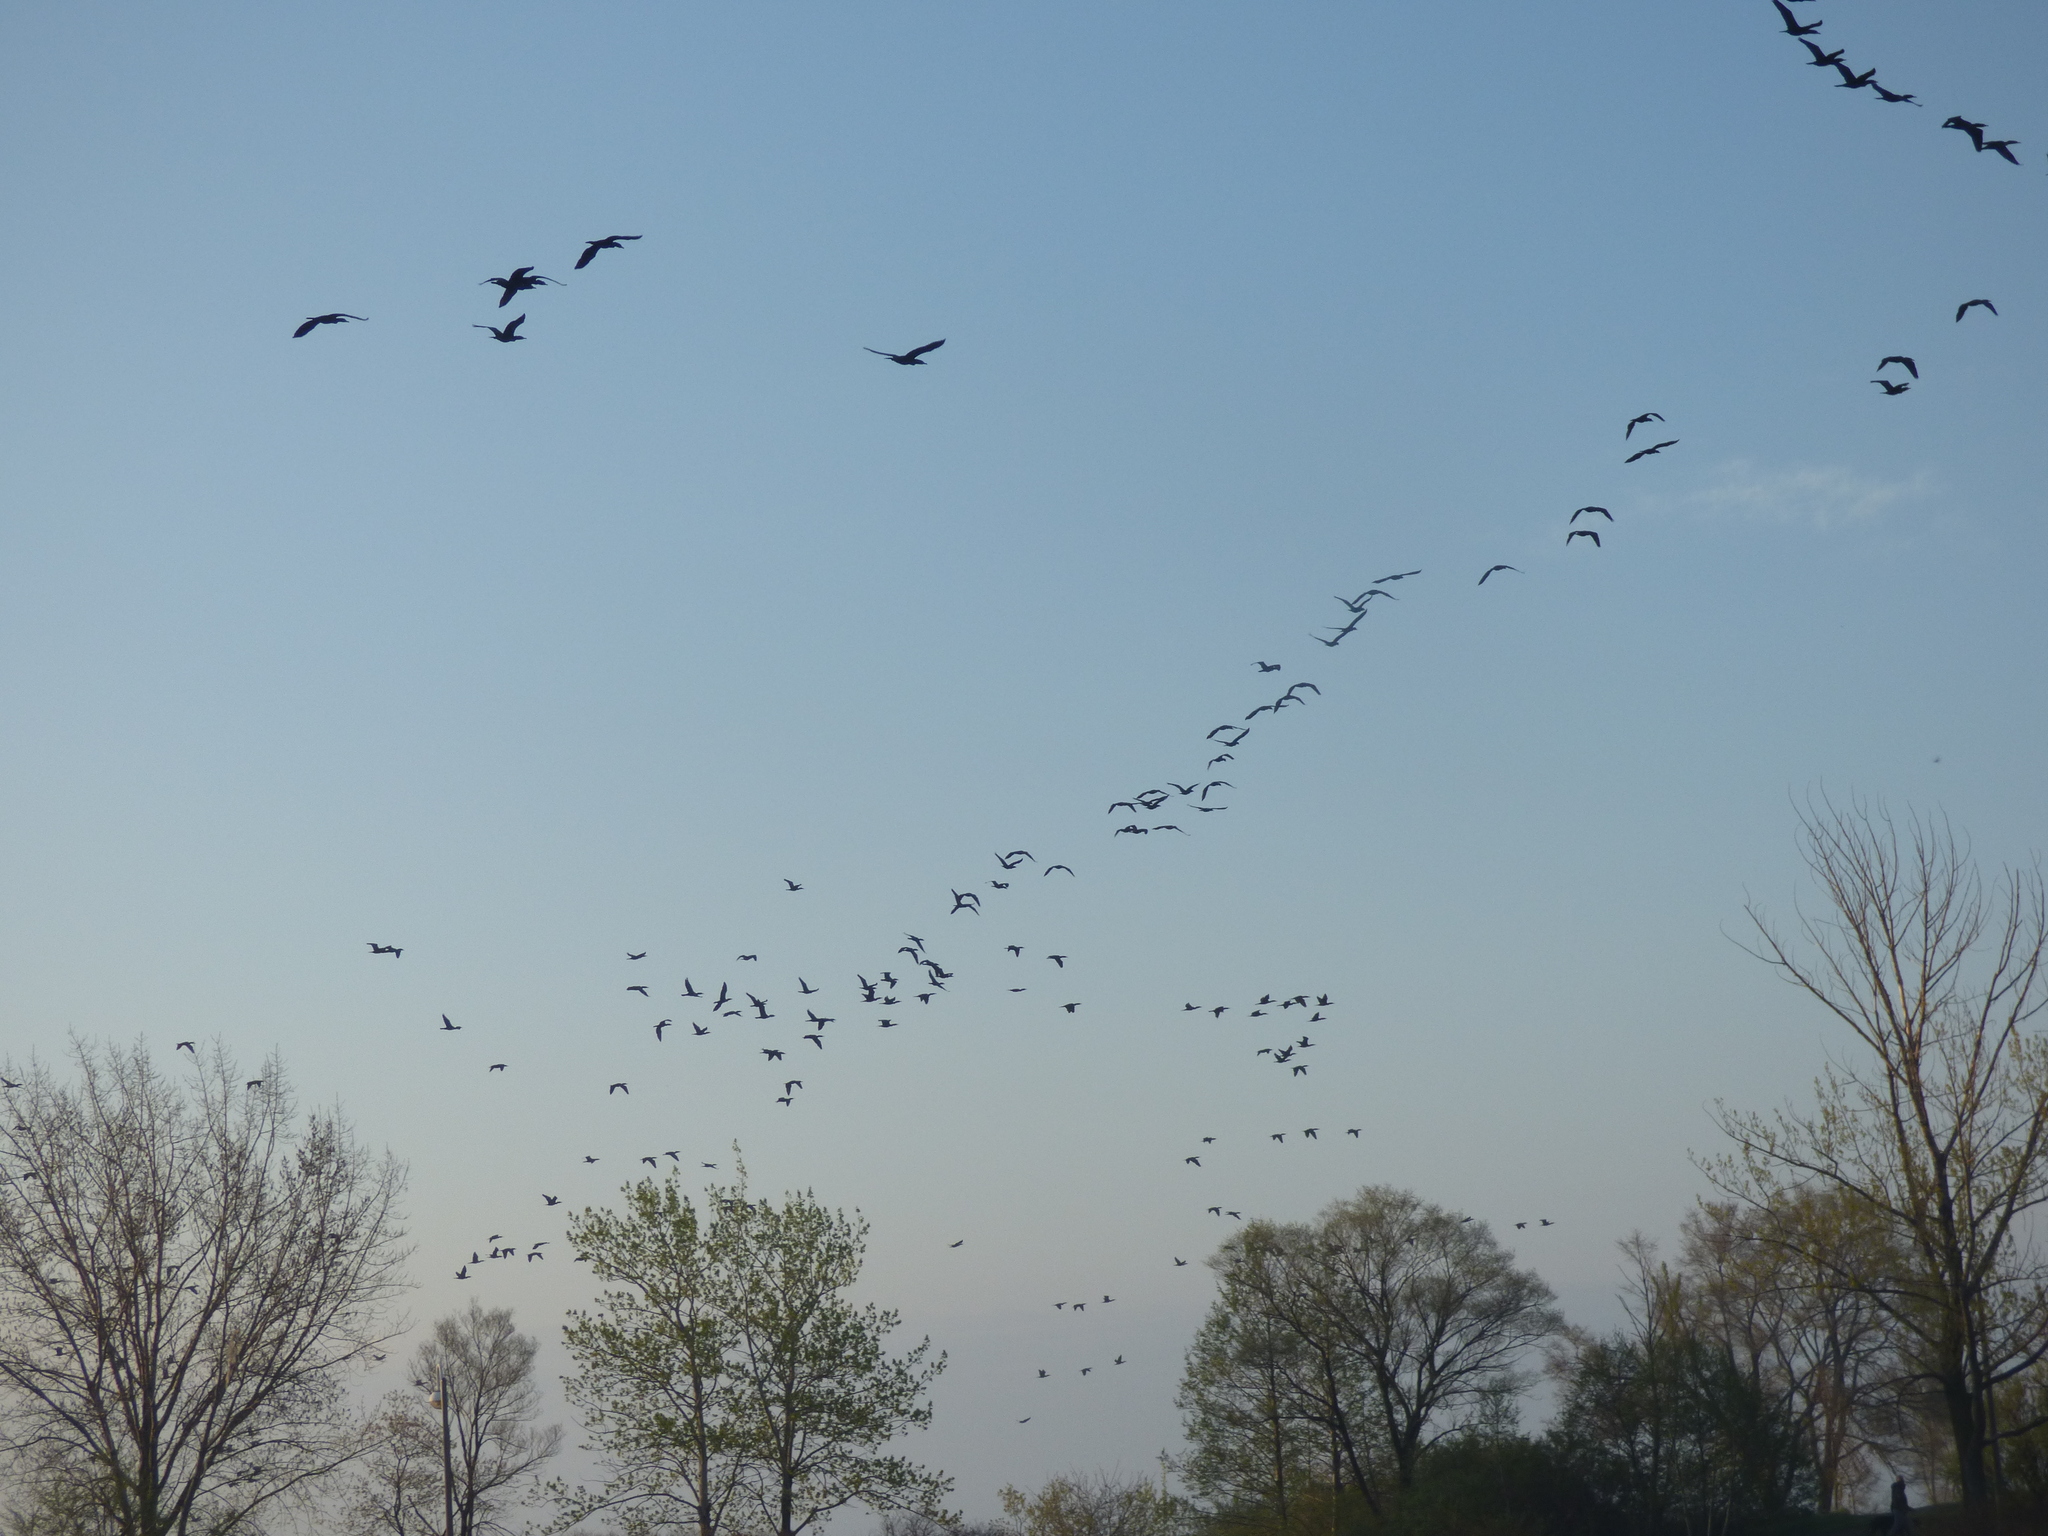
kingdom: Animalia
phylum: Chordata
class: Aves
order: Suliformes
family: Phalacrocoracidae
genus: Phalacrocorax
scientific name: Phalacrocorax auritus
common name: Double-crested cormorant
